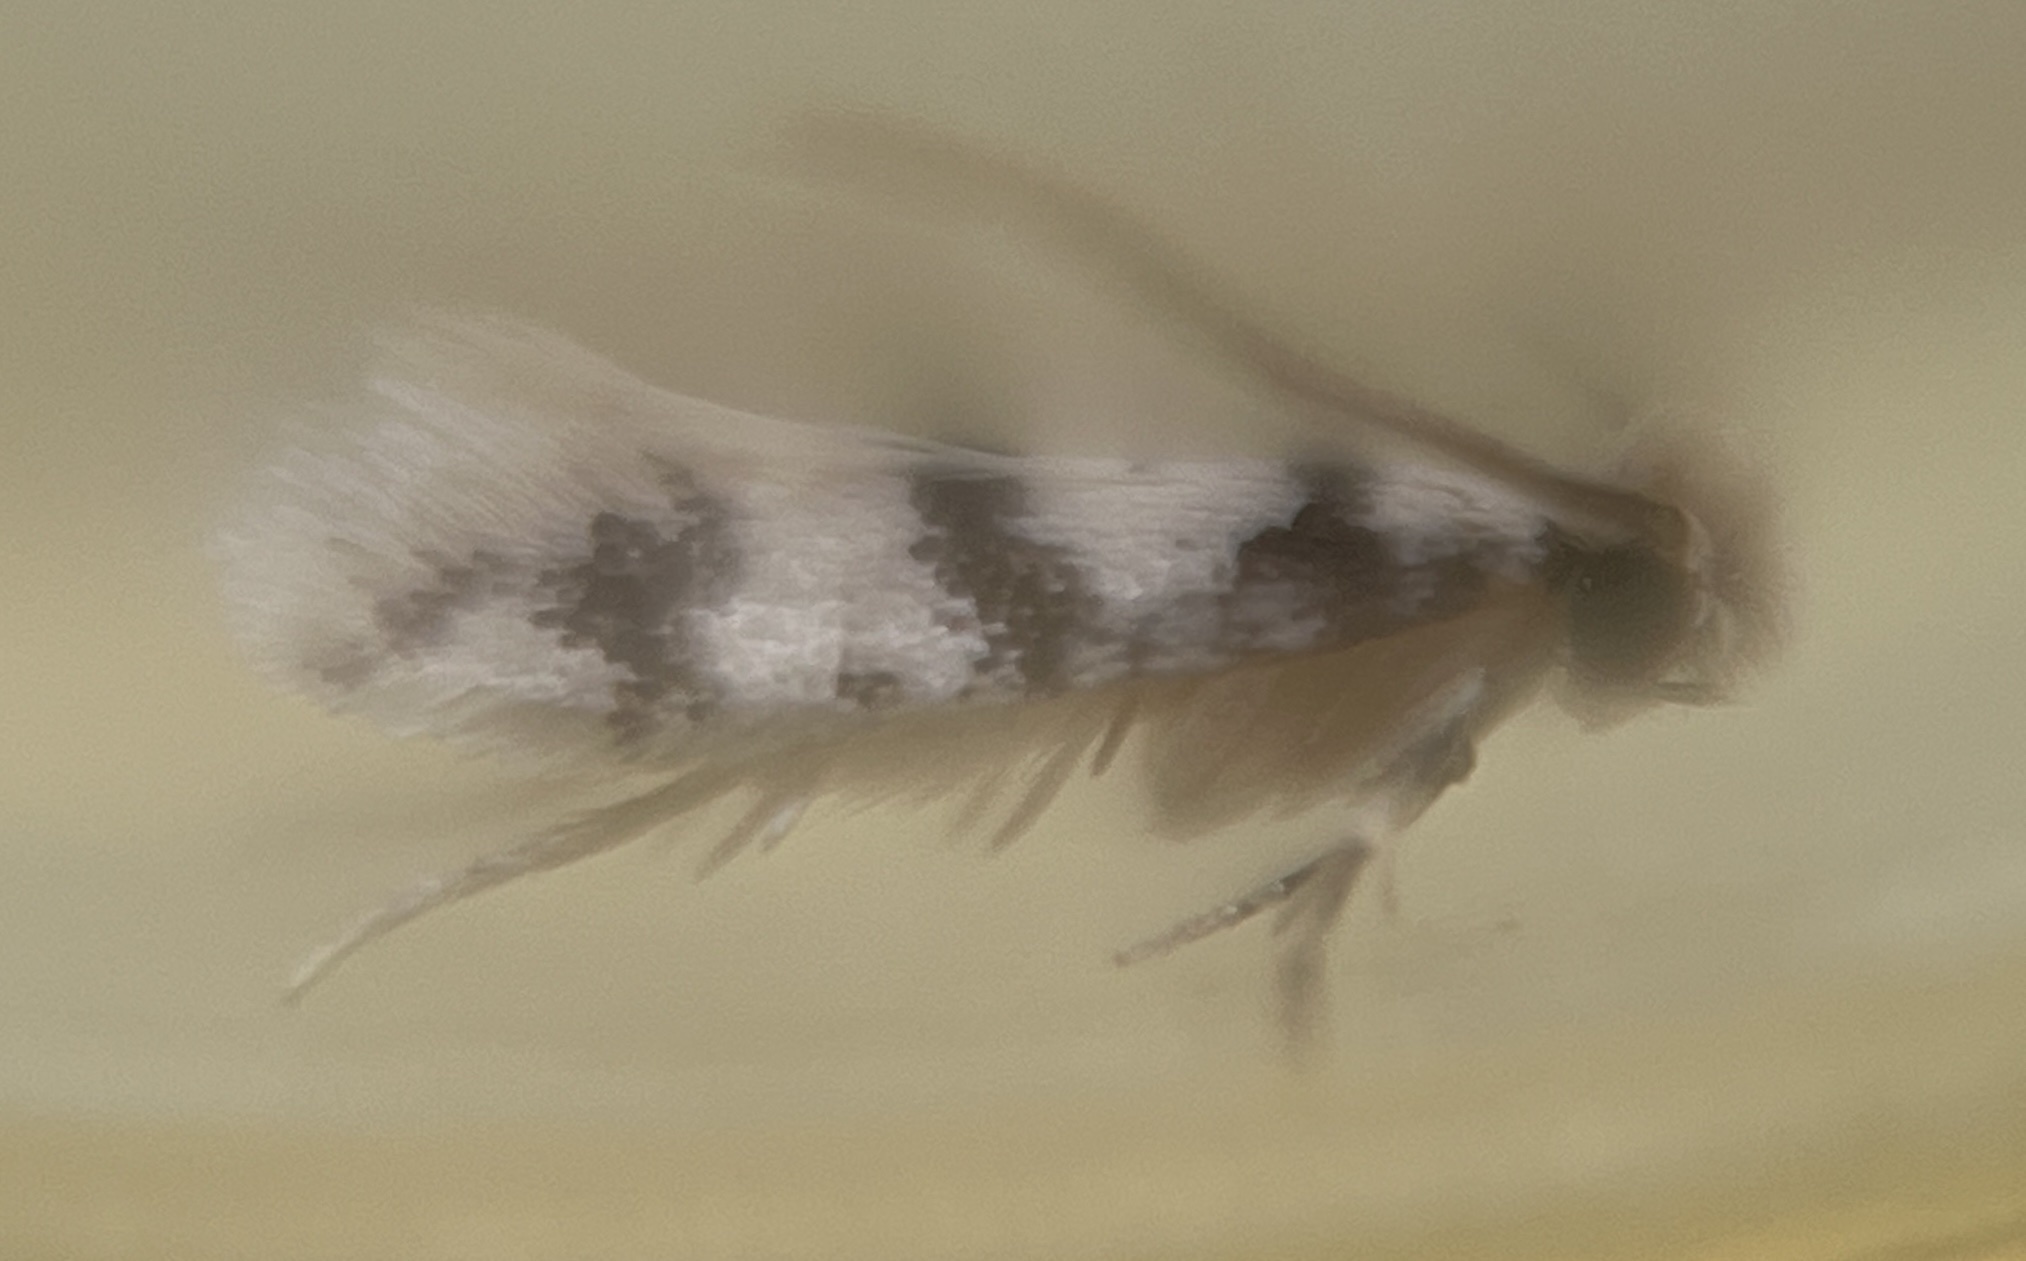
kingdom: Animalia
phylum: Arthropoda
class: Insecta
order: Lepidoptera
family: Meessiidae
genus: Eudarcia
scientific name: Eudarcia haliplancta
